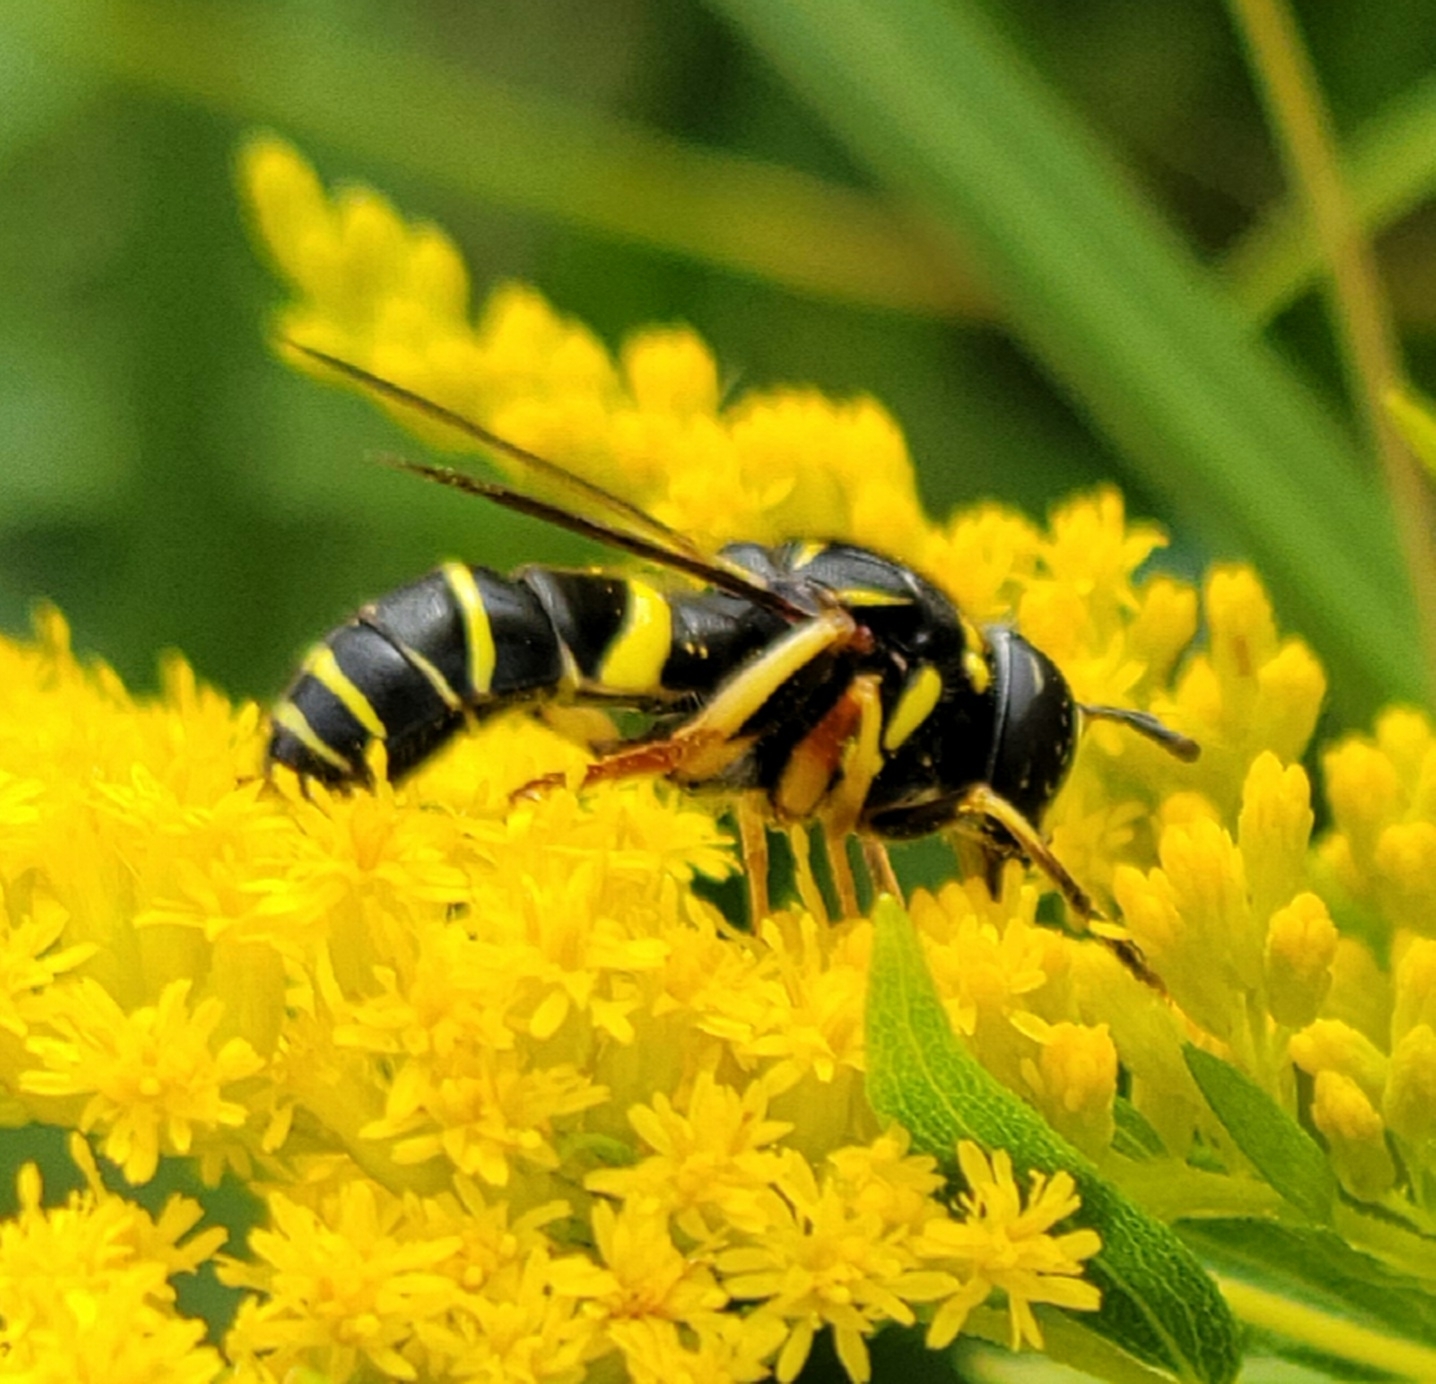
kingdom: Animalia
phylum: Arthropoda
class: Insecta
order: Diptera
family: Syrphidae
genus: Spilomyia
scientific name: Spilomyia sayi
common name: Four-lined hornet fly
